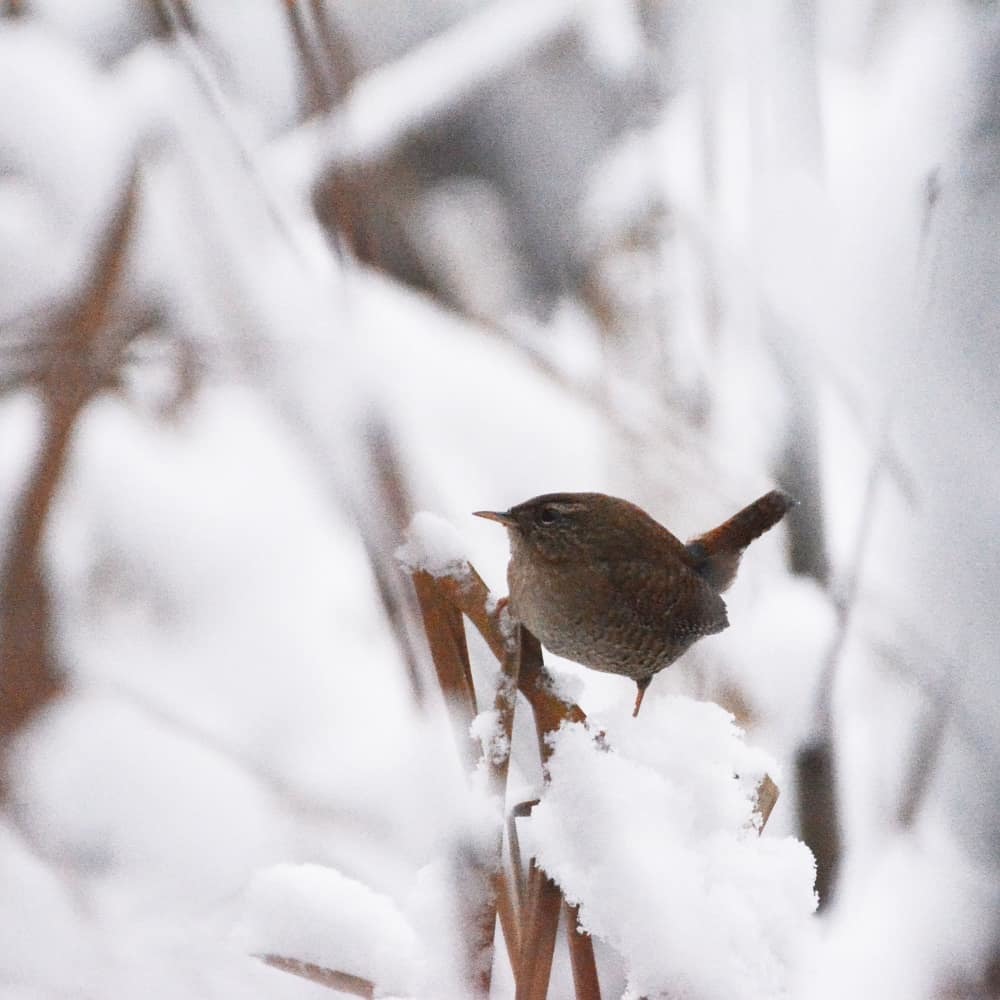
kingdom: Animalia
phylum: Chordata
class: Aves
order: Passeriformes
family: Troglodytidae
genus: Troglodytes
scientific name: Troglodytes troglodytes
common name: Eurasian wren
